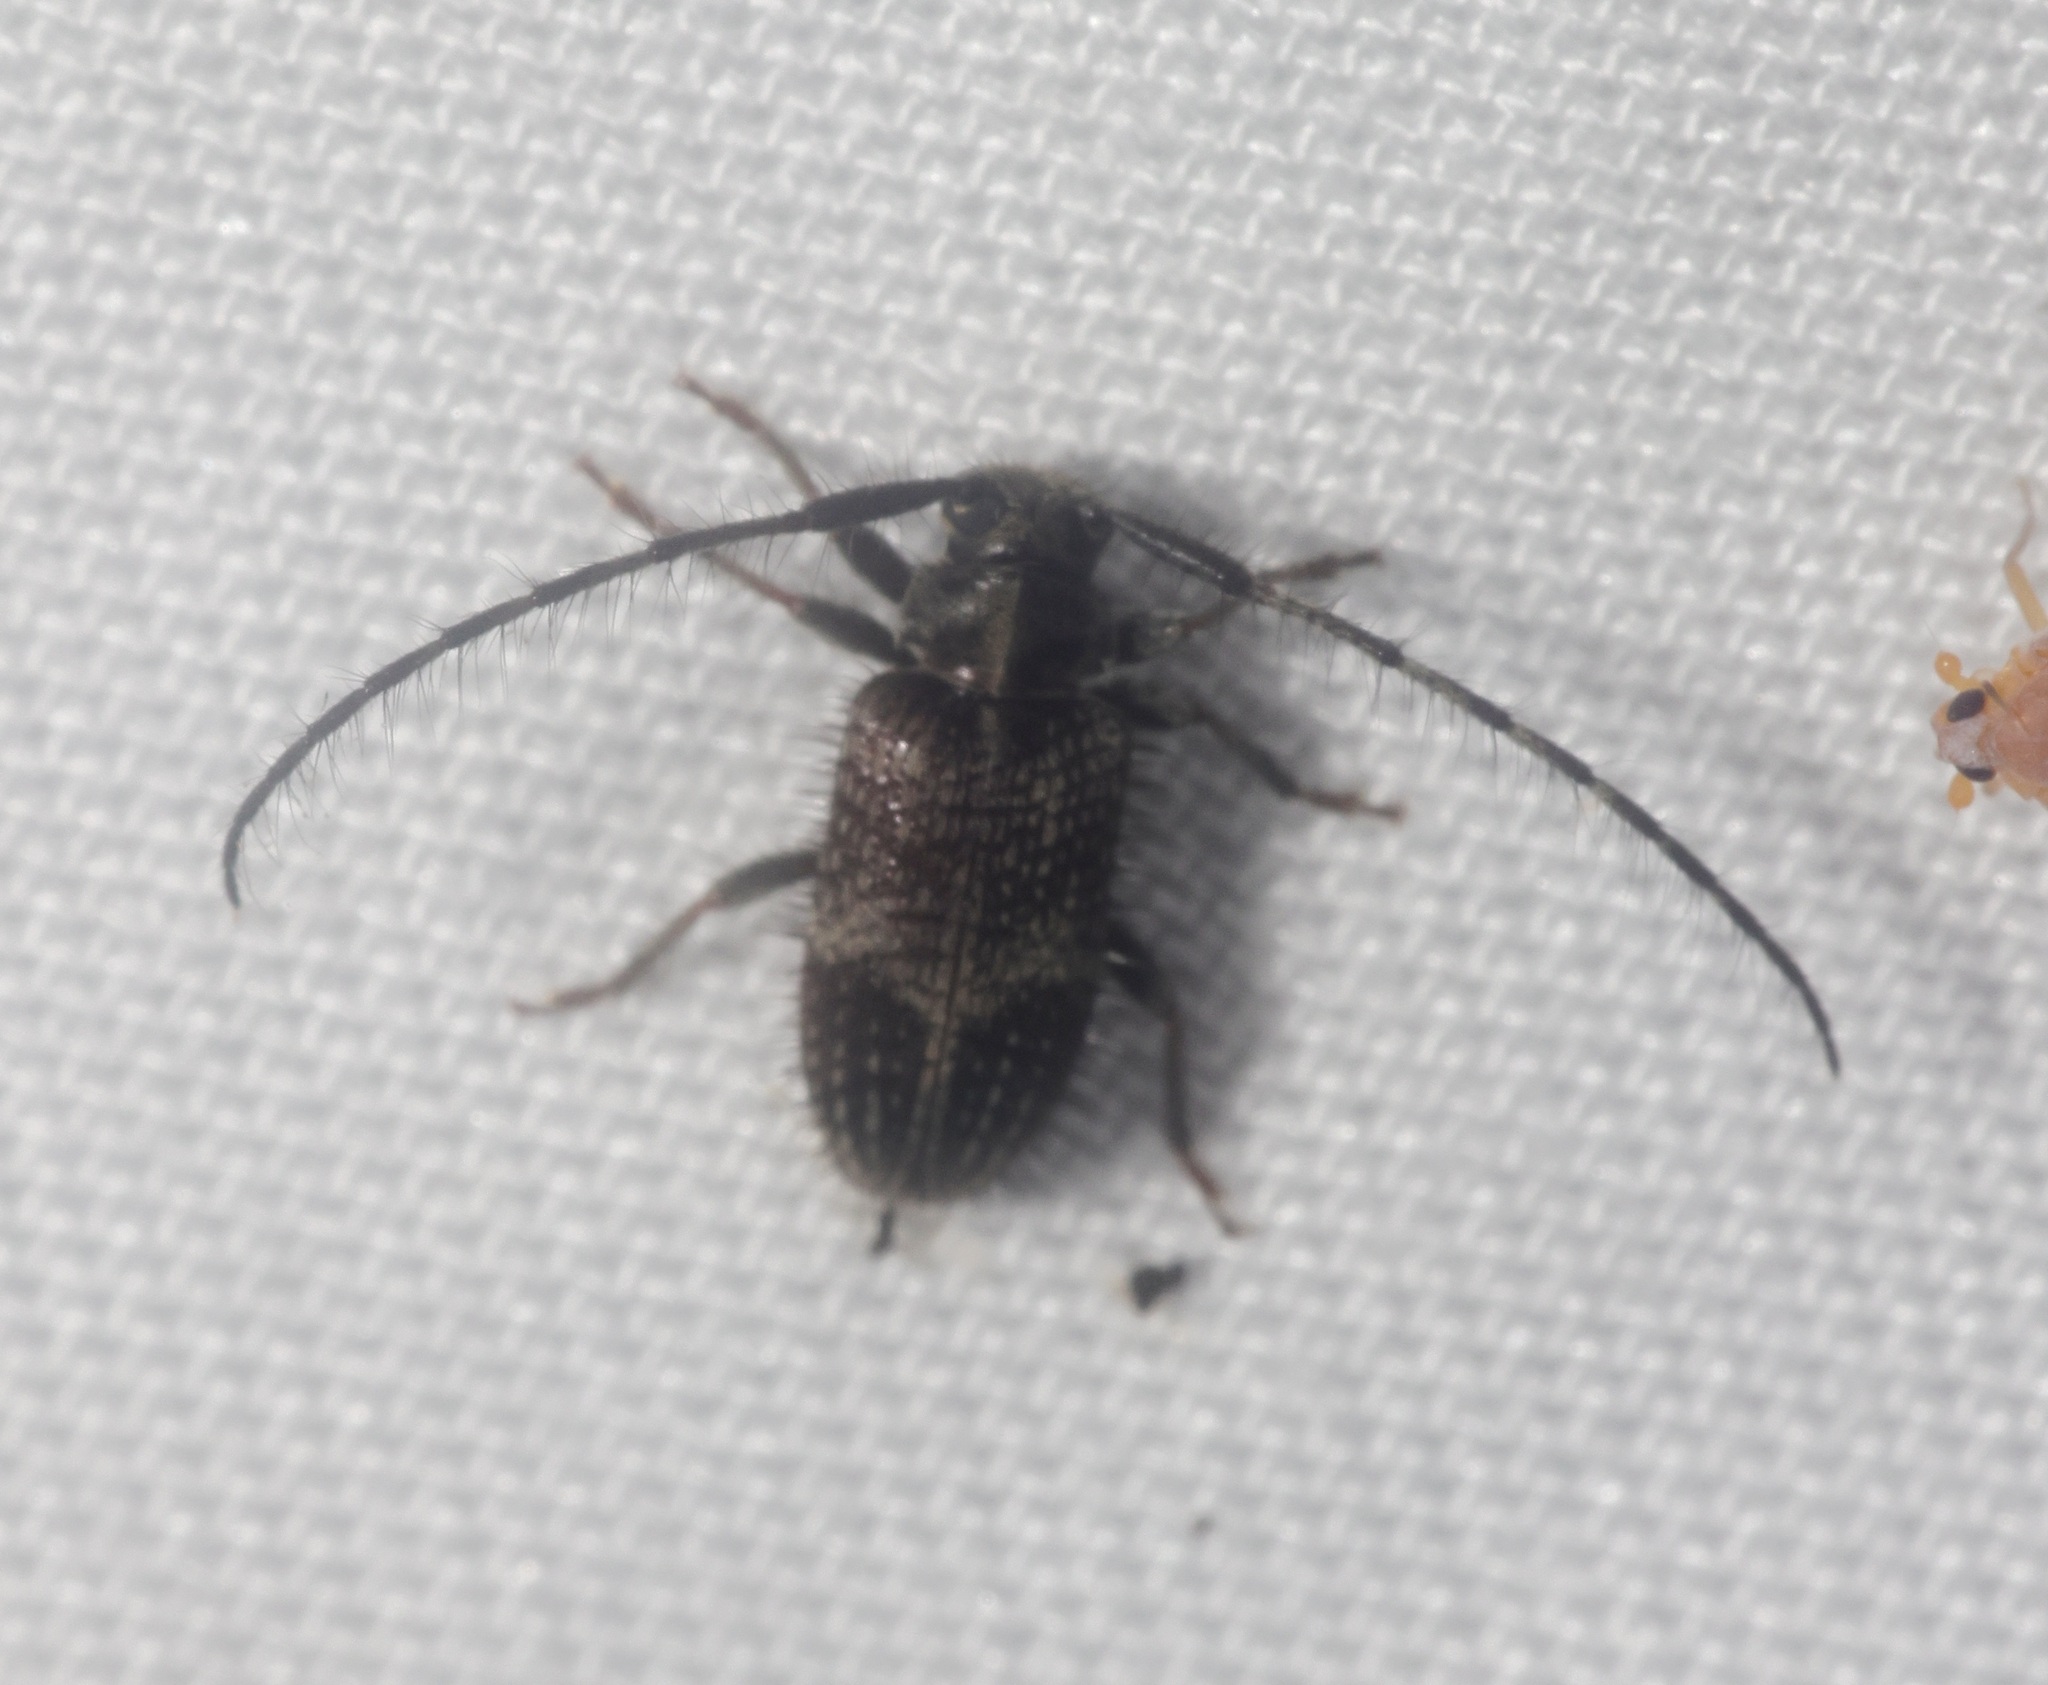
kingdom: Animalia
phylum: Arthropoda
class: Insecta
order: Coleoptera
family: Cerambycidae
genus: Exocentrus
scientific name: Exocentrus alboguttatus
